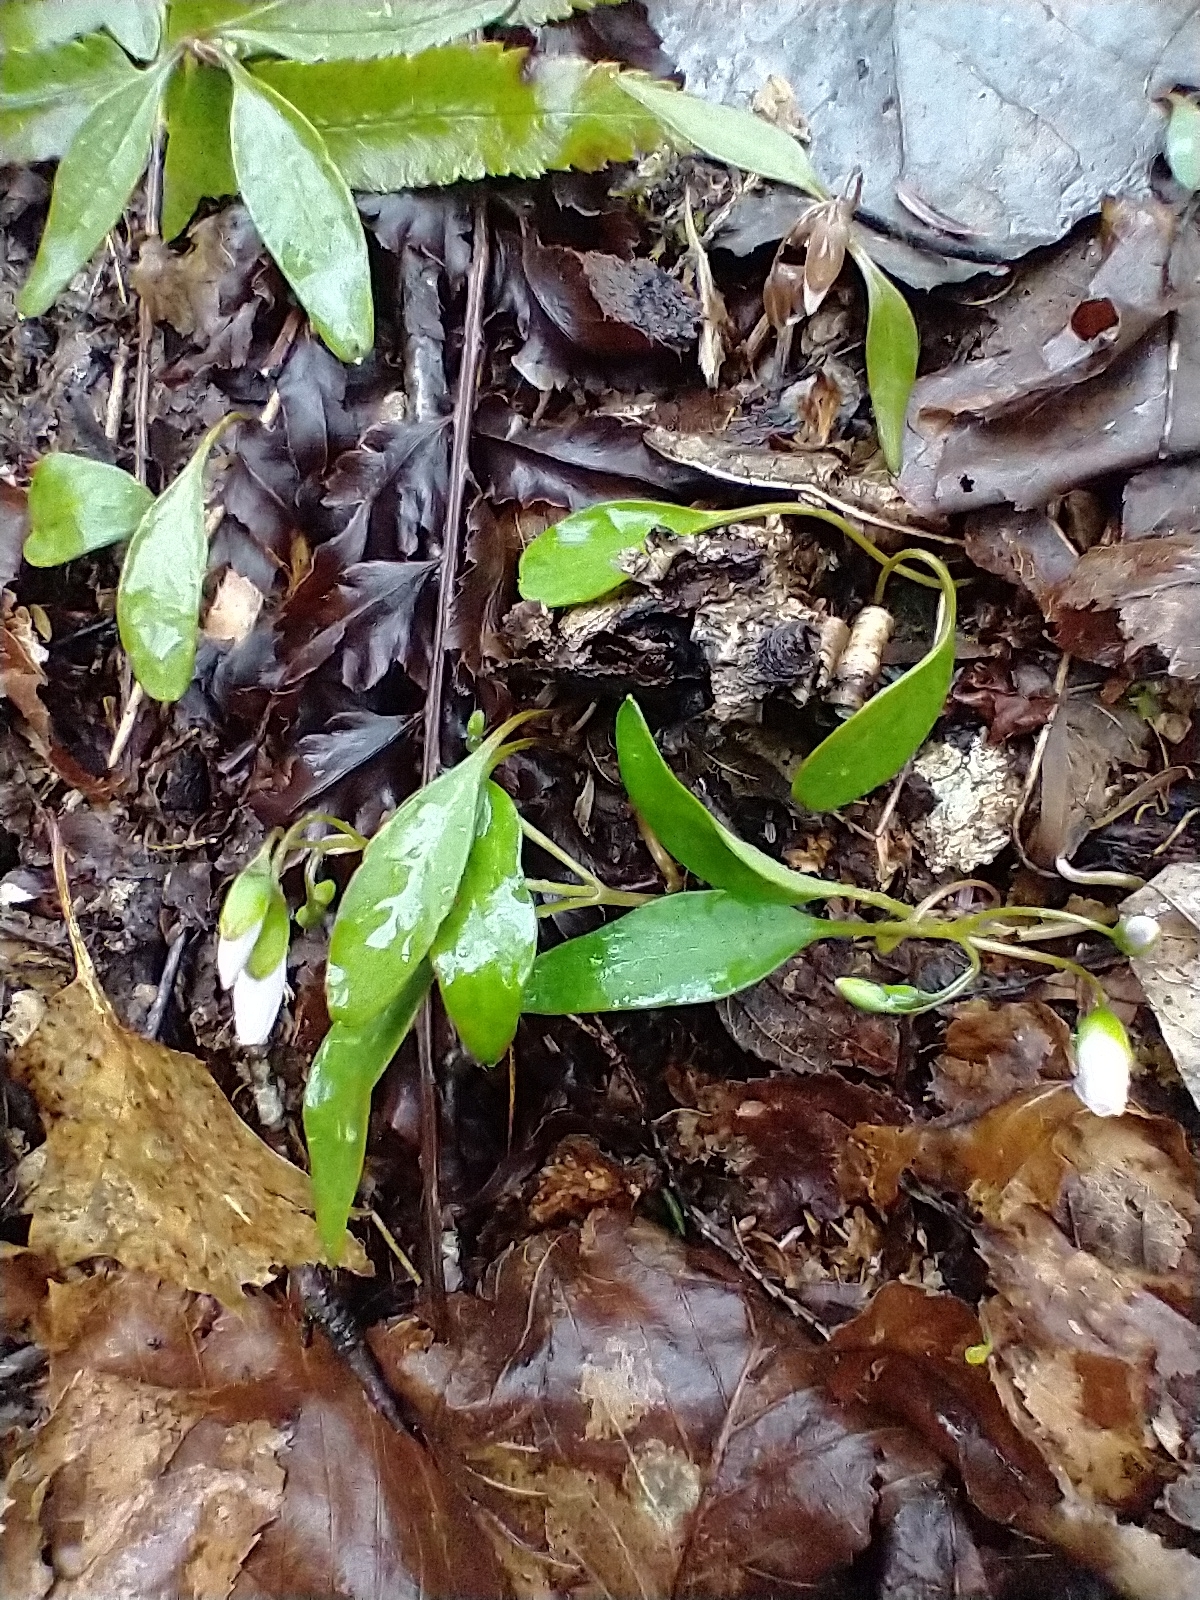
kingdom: Plantae
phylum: Tracheophyta
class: Magnoliopsida
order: Caryophyllales
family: Montiaceae
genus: Claytonia
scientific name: Claytonia caroliniana
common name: Carolina spring beauty
